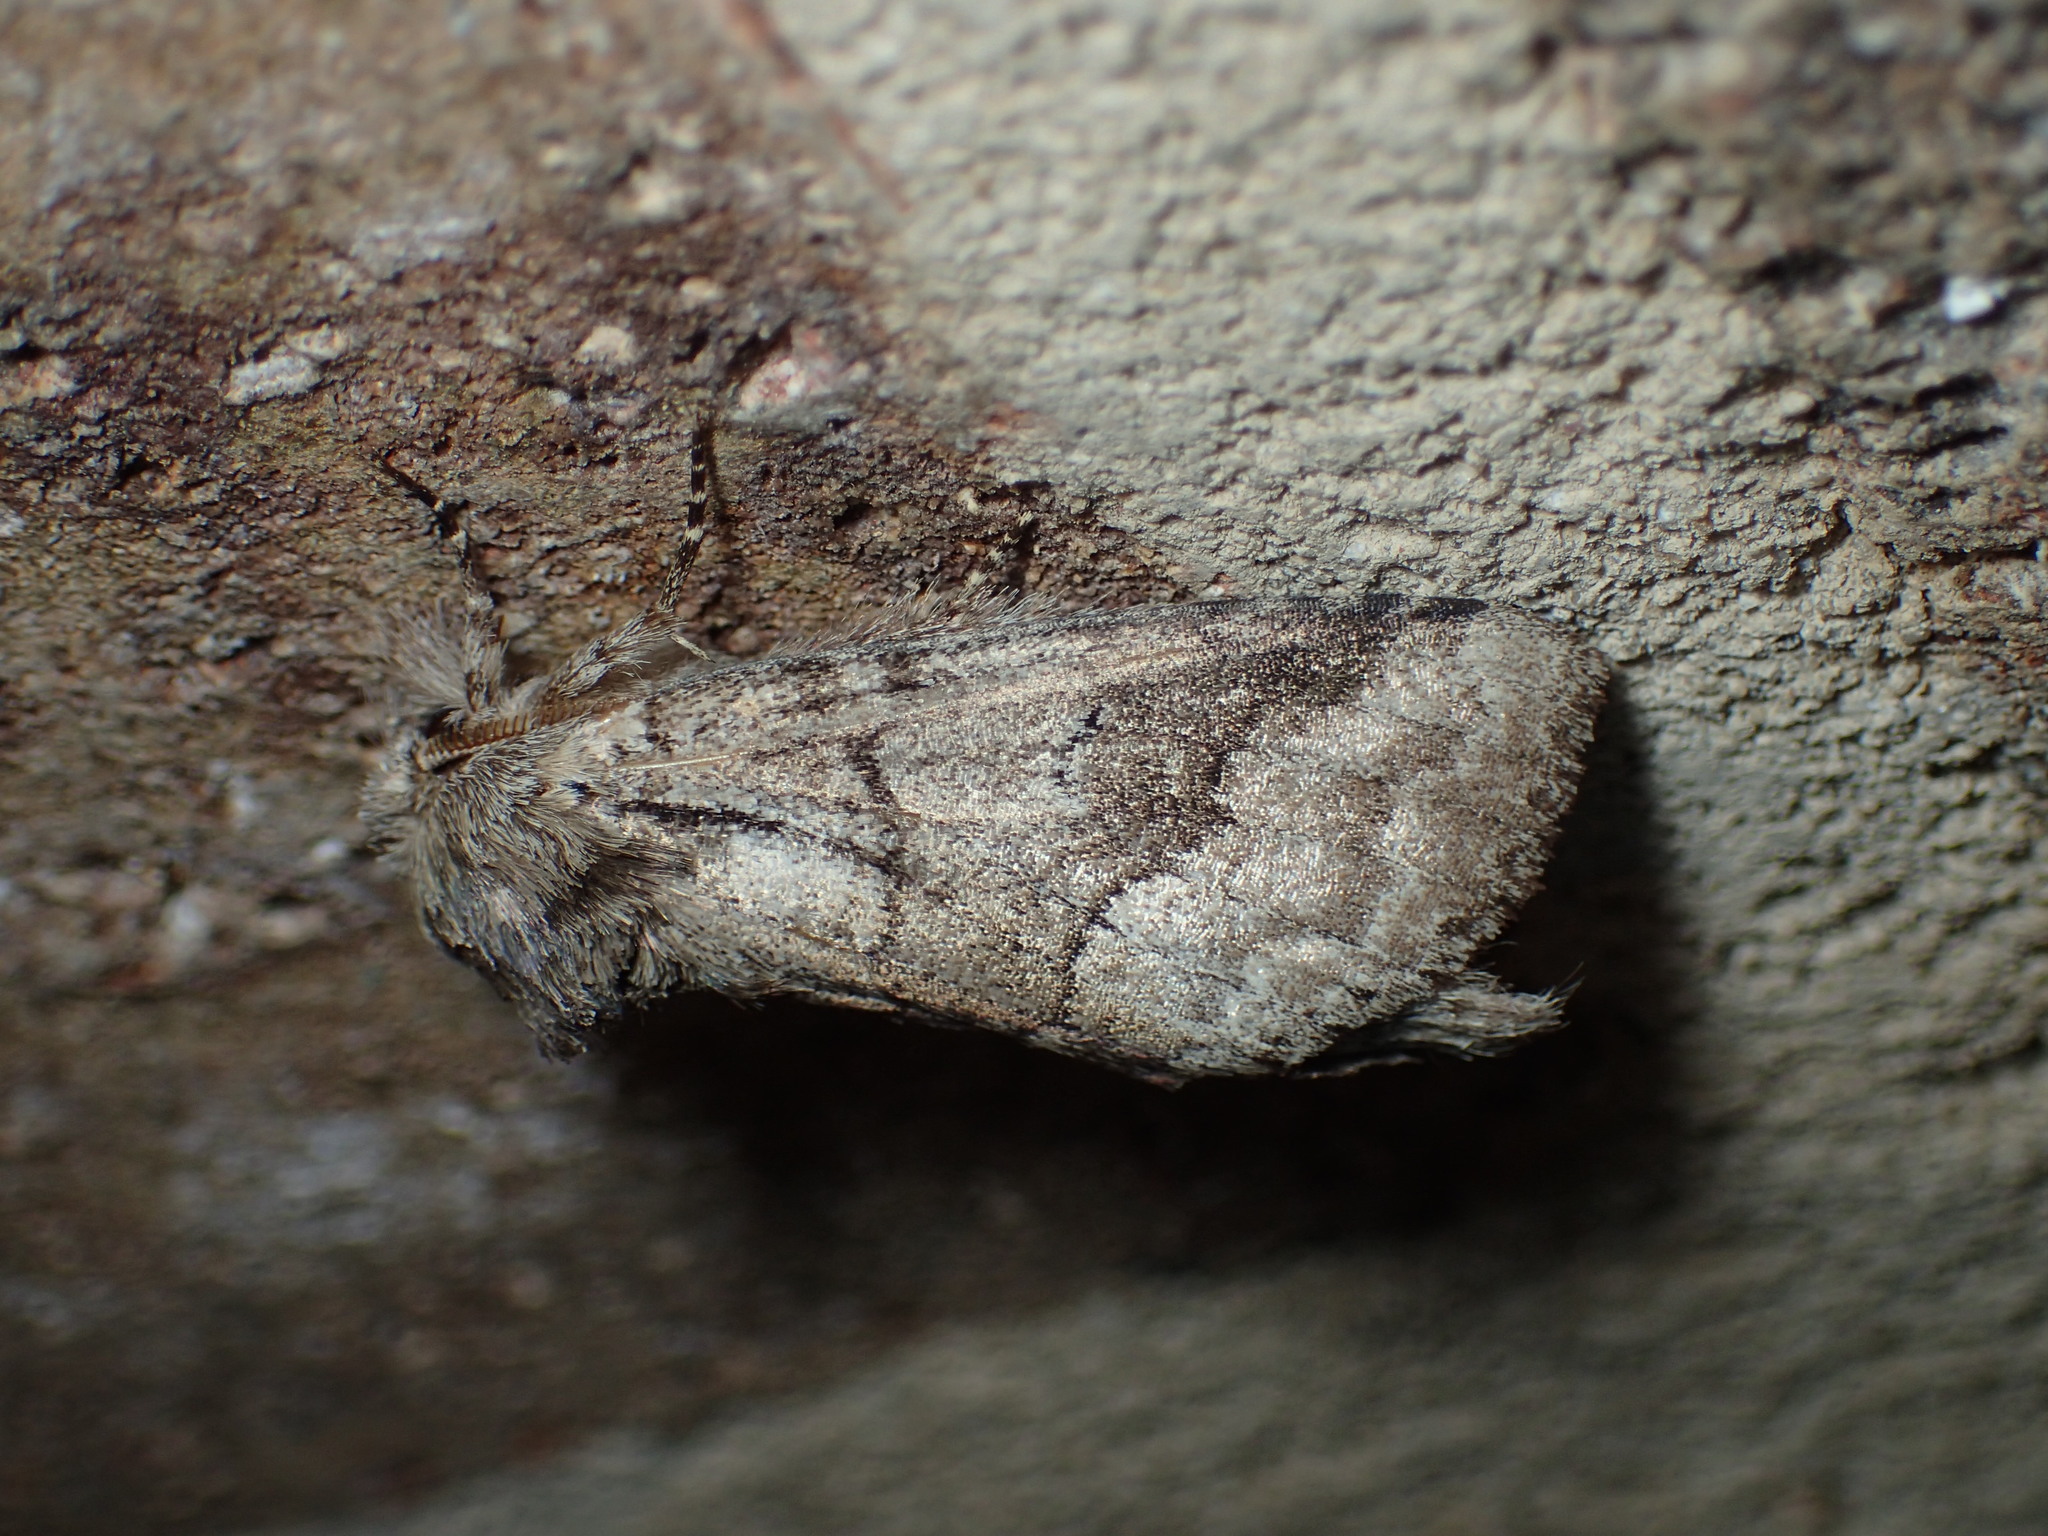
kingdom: Animalia
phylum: Arthropoda
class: Insecta
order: Lepidoptera
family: Notodontidae
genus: Lochmaeus
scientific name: Lochmaeus bilineata
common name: Double-lined prominent
